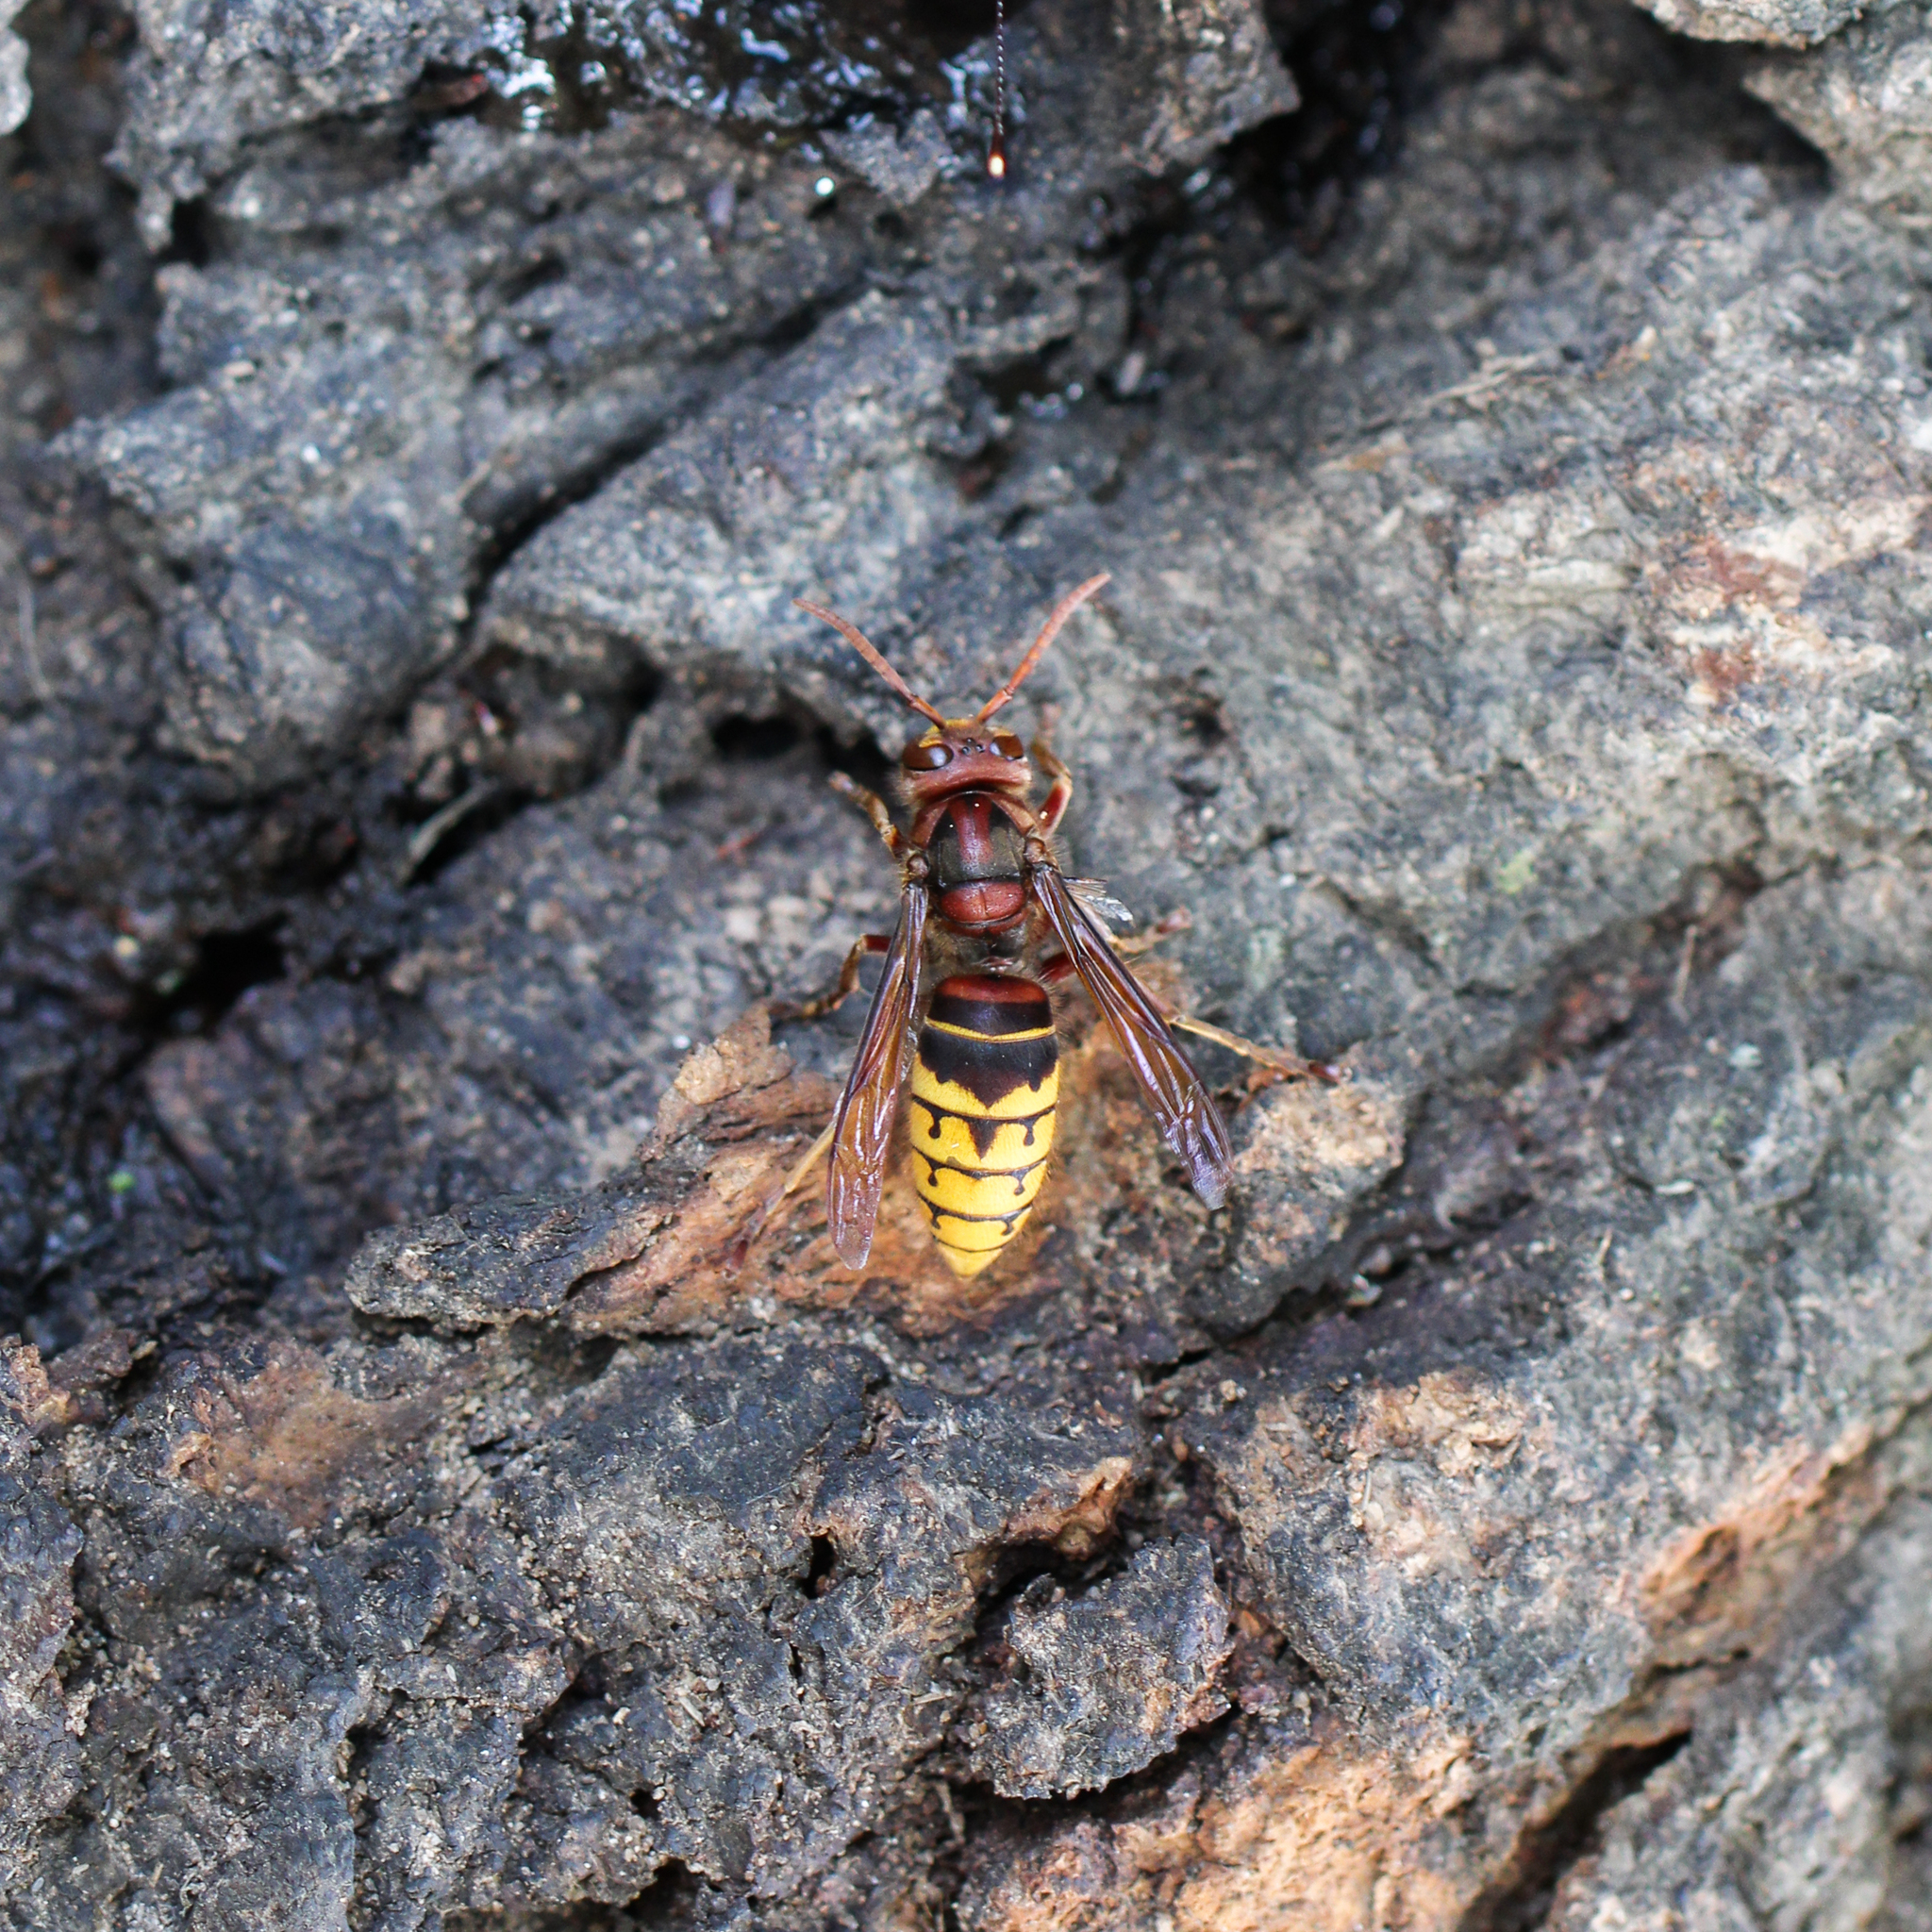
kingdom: Animalia
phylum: Arthropoda
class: Insecta
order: Hymenoptera
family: Vespidae
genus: Vespa
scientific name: Vespa crabro
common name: Hornet
